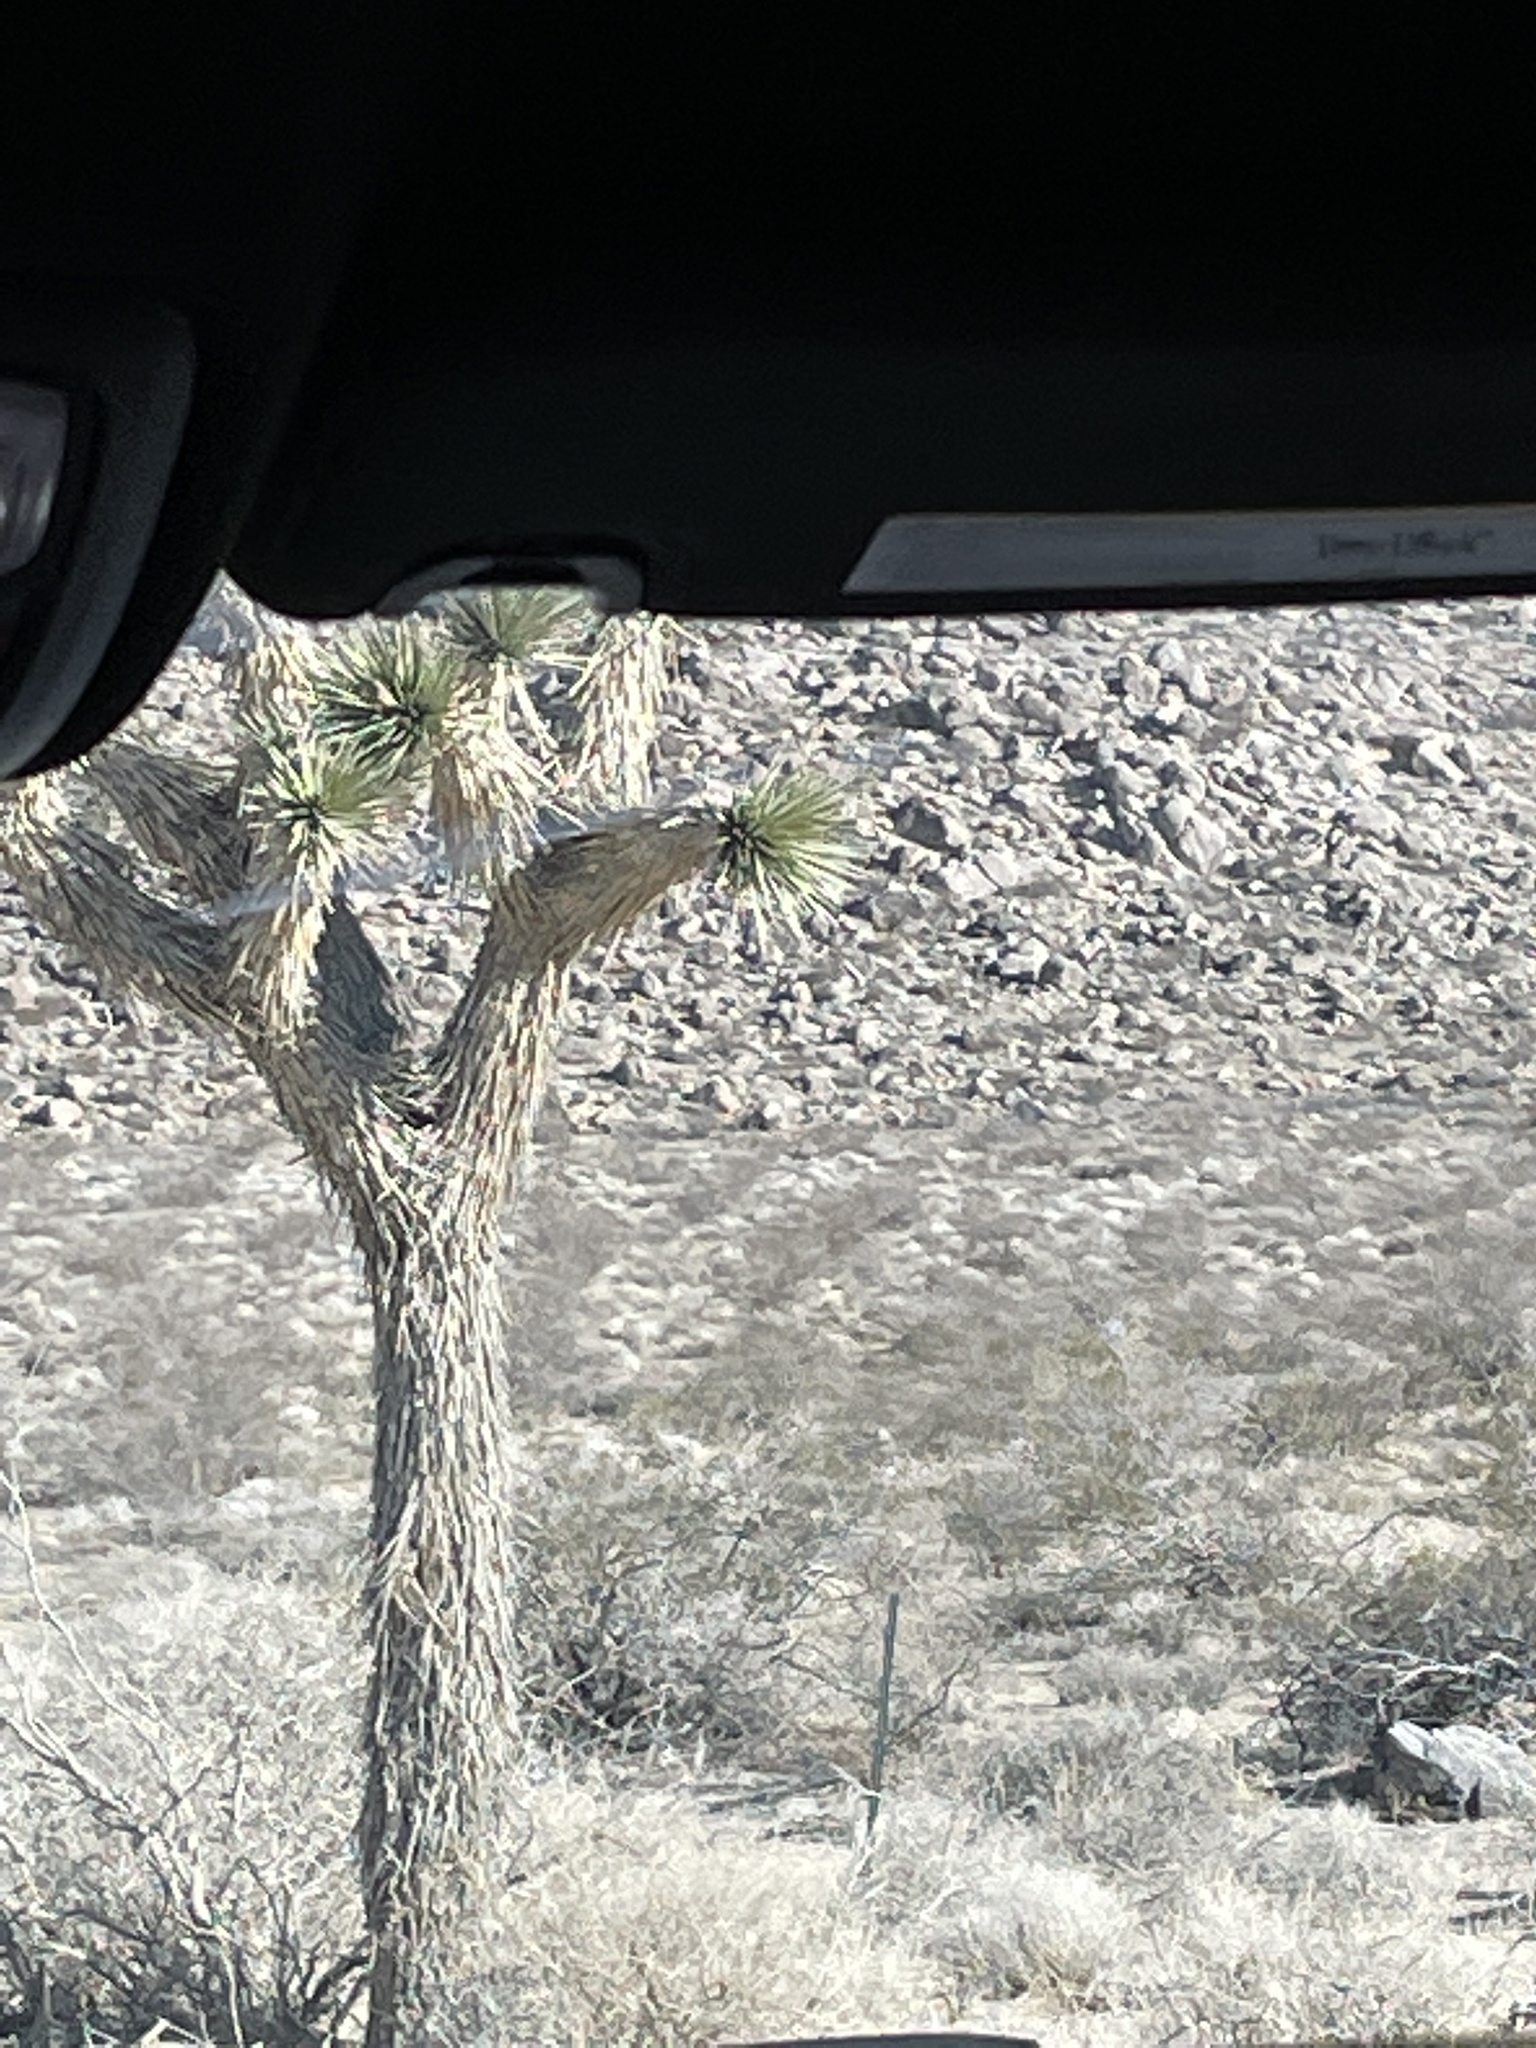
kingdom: Plantae
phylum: Tracheophyta
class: Liliopsida
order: Asparagales
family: Asparagaceae
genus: Yucca
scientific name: Yucca brevifolia
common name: Joshua tree
